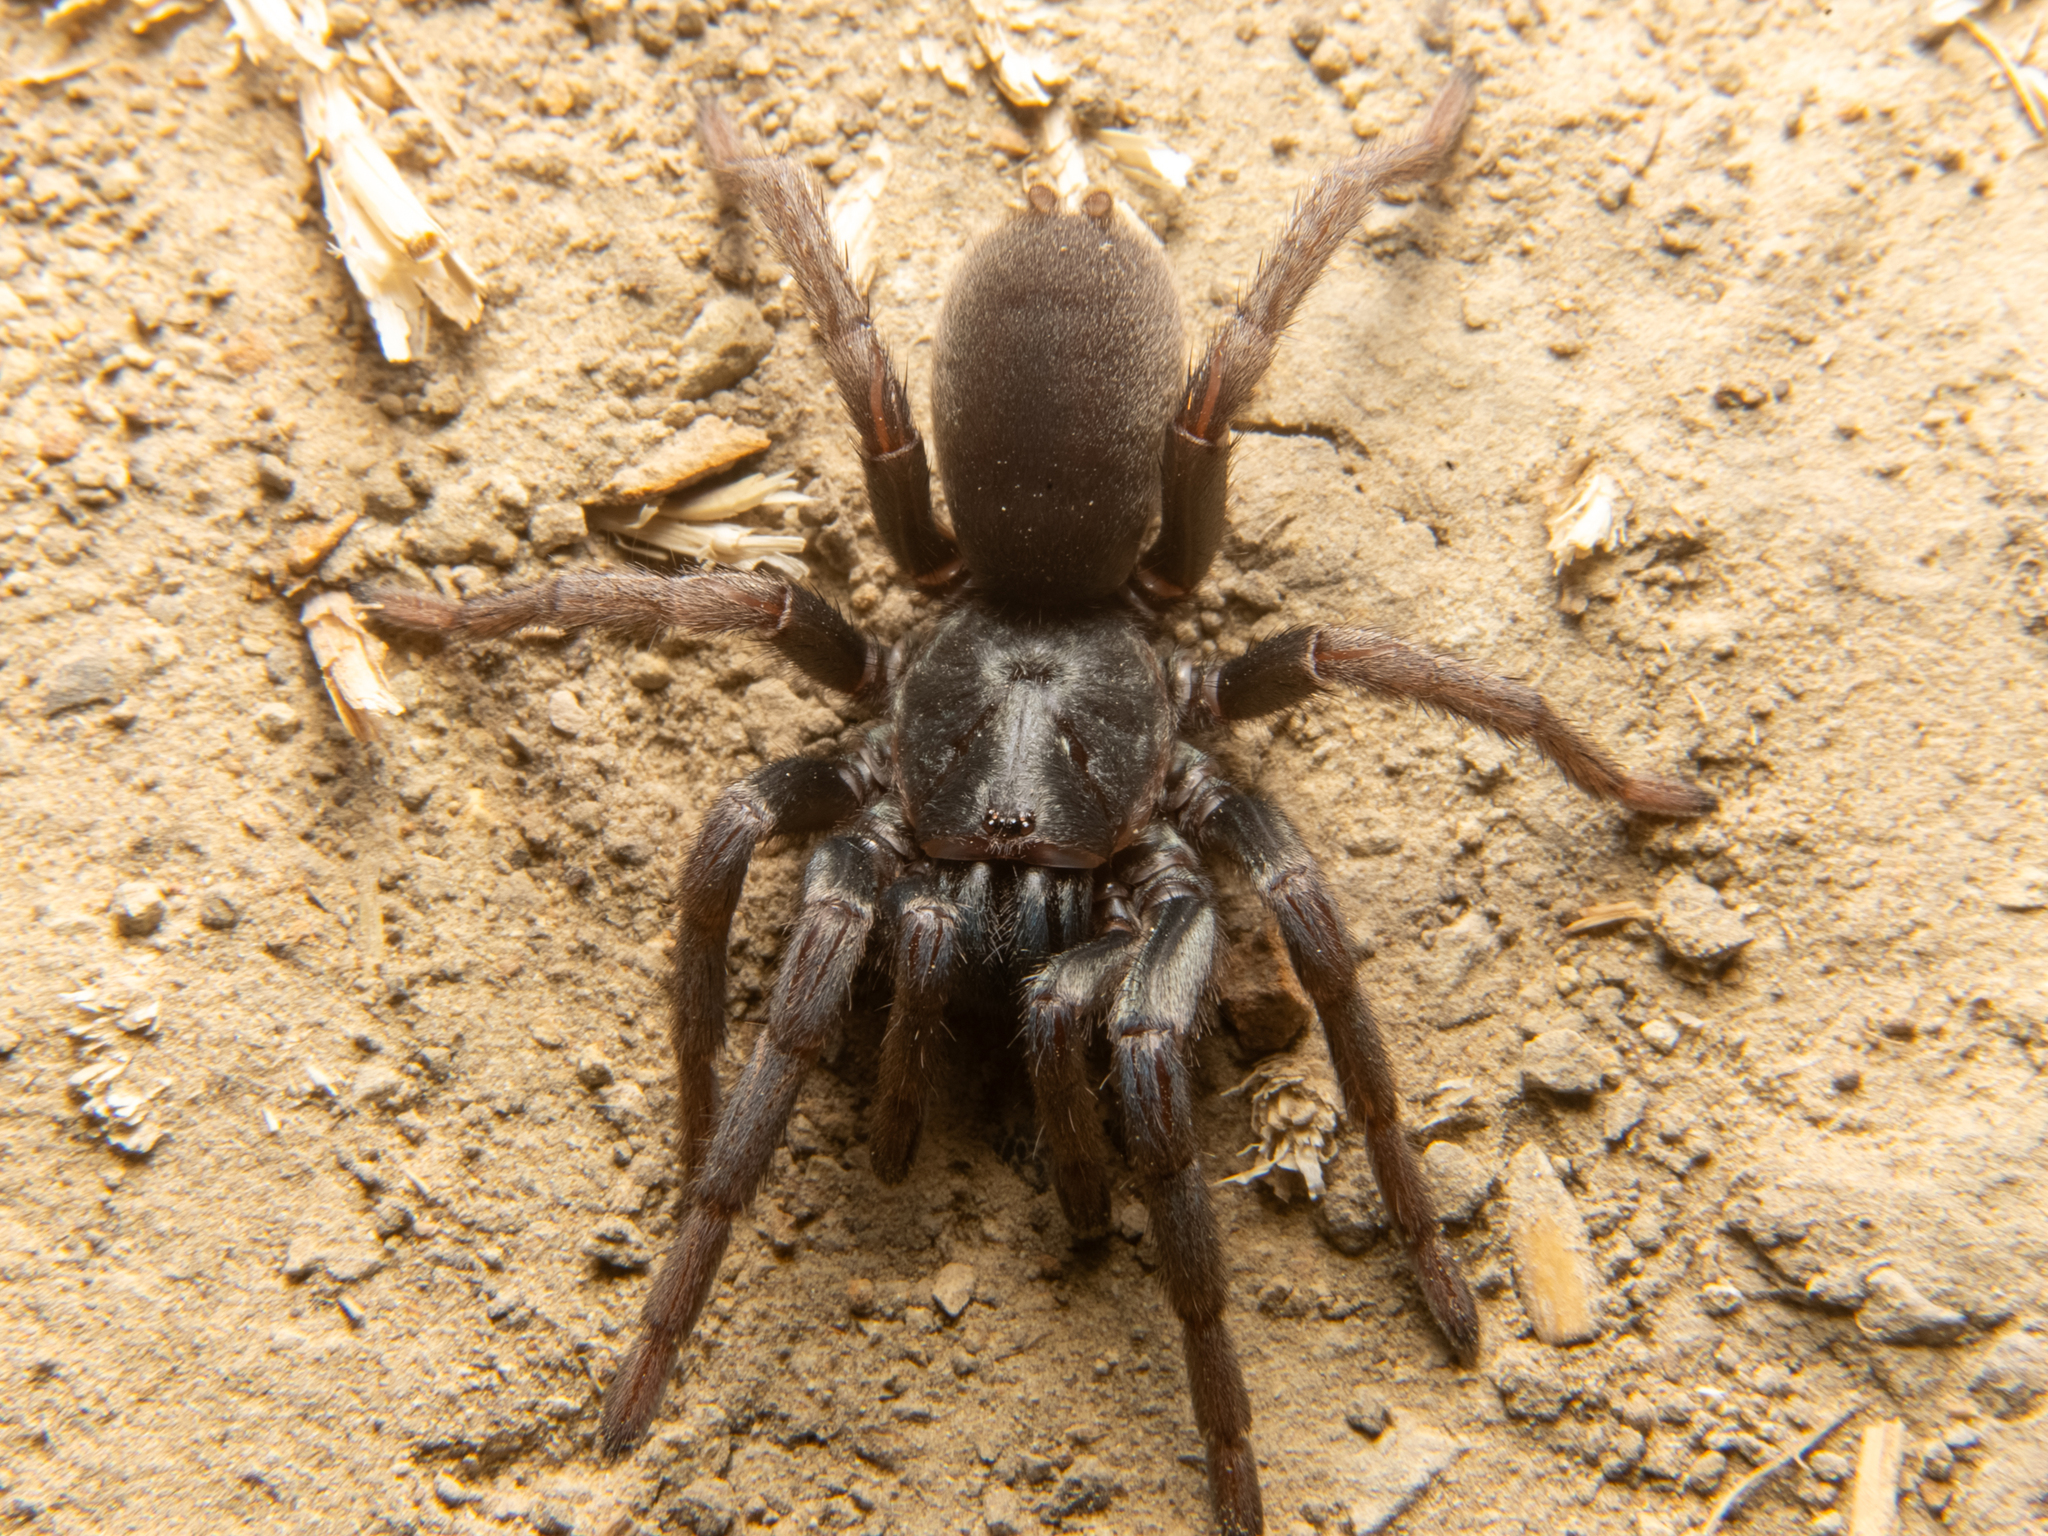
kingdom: Animalia
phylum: Arthropoda
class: Arachnida
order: Araneae
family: Nemesiidae
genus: Calisoga
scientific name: Calisoga longitarsis
